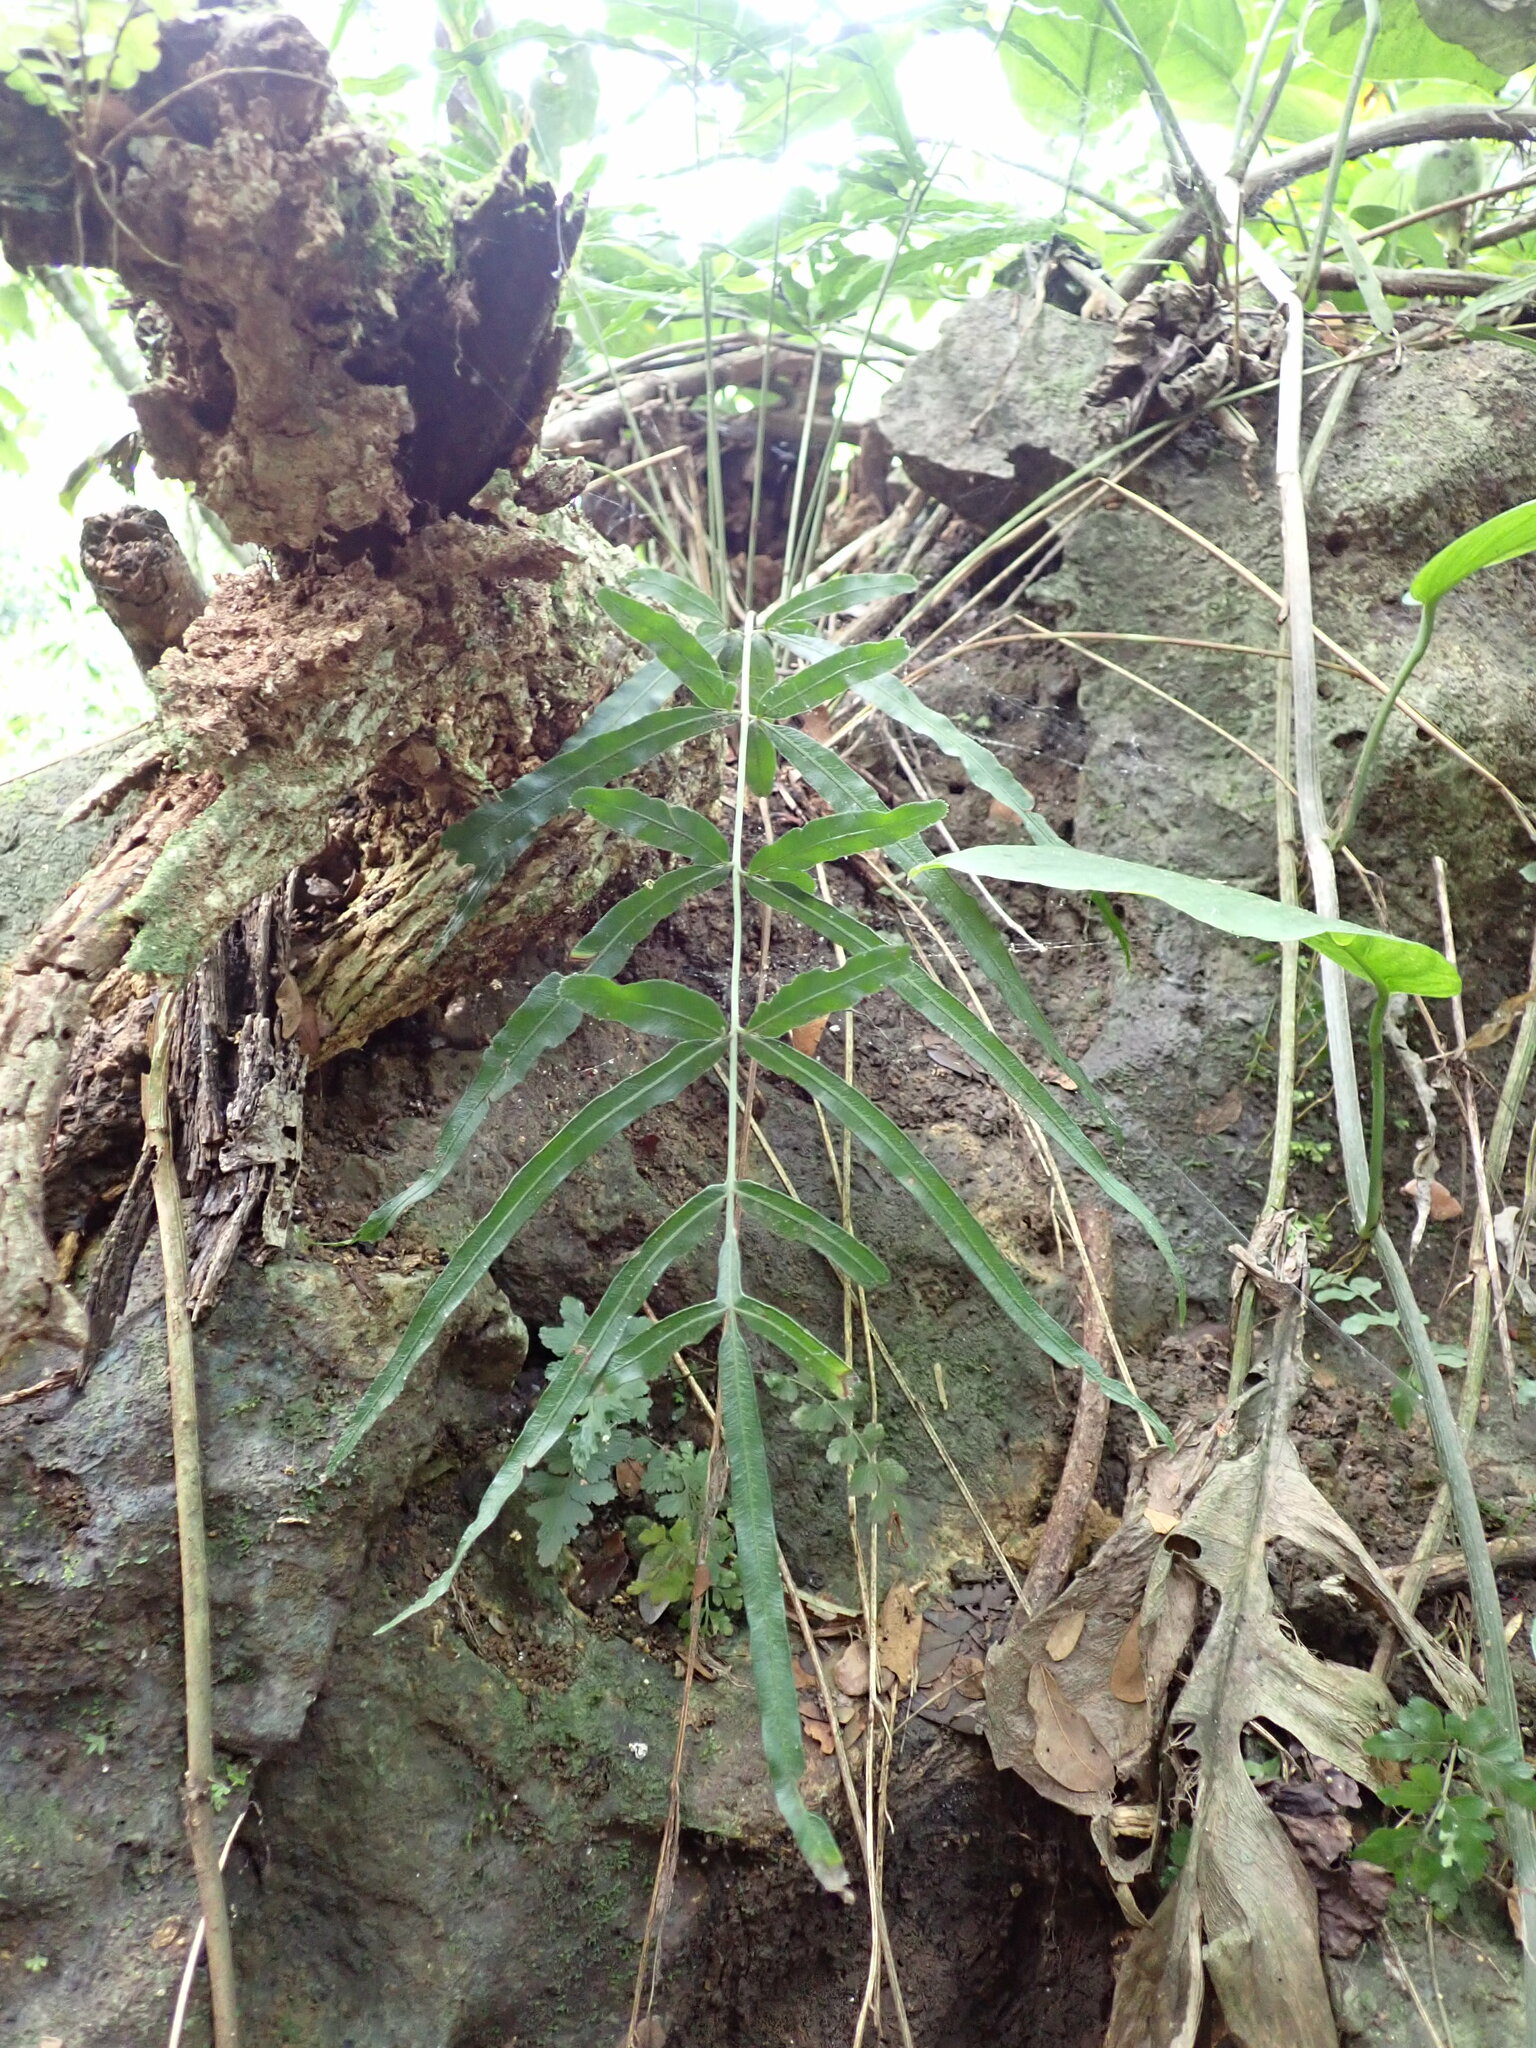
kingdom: Plantae
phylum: Tracheophyta
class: Polypodiopsida
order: Polypodiales
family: Pteridaceae
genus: Pteris
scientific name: Pteris ensiformis
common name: Sword brake
